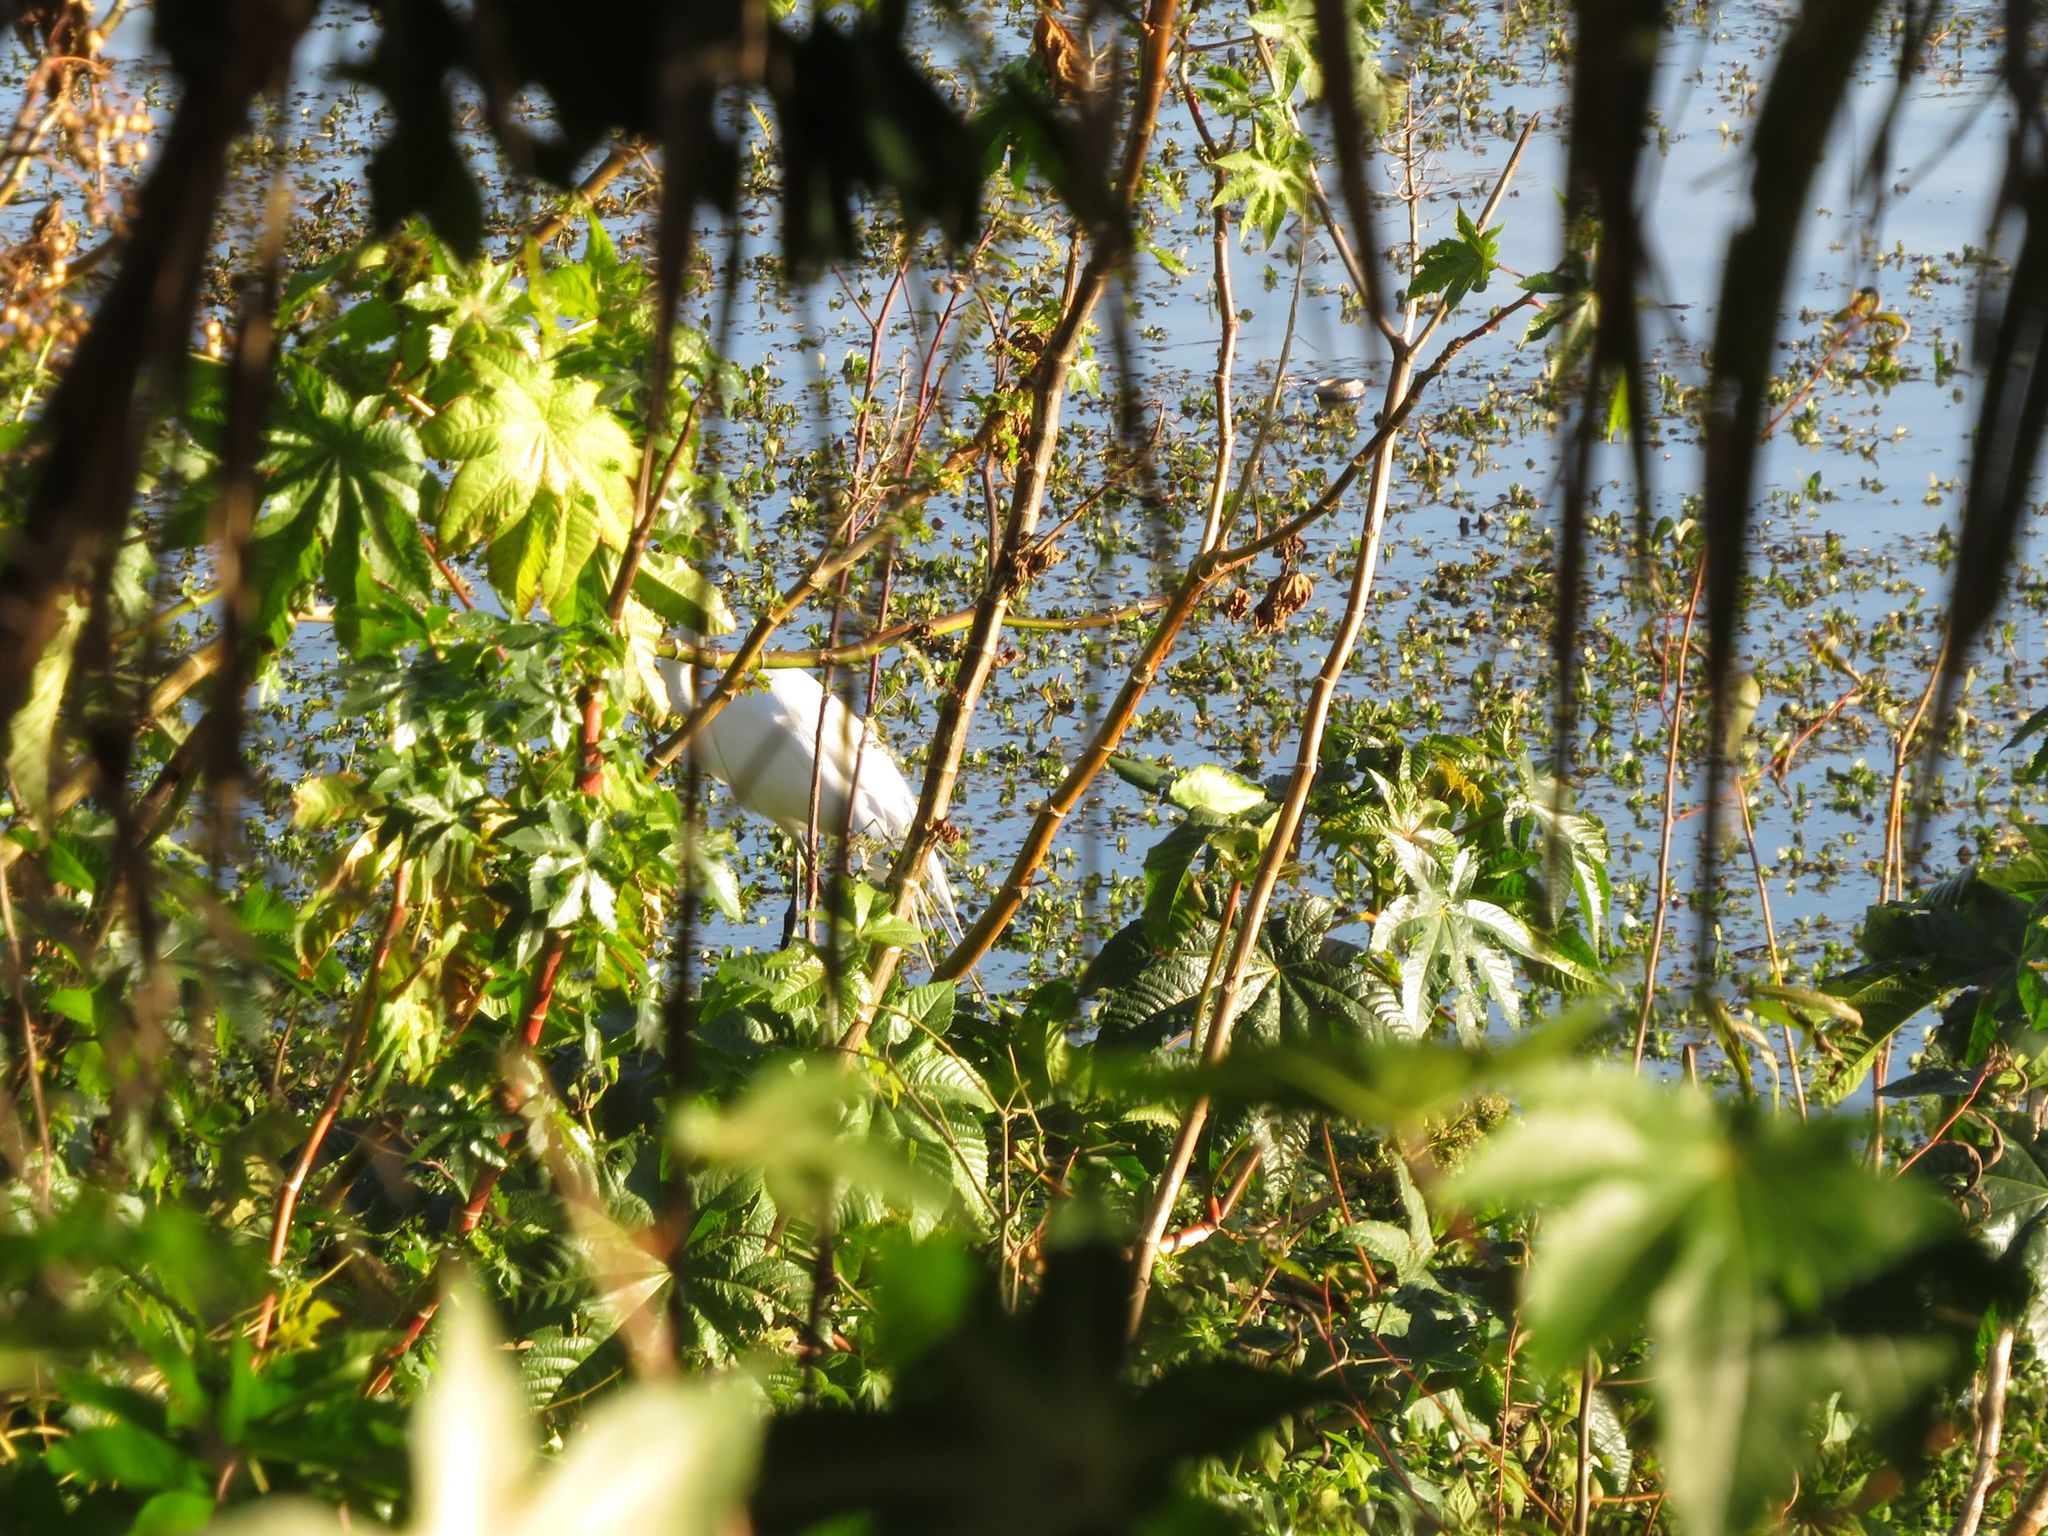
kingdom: Animalia
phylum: Chordata
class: Aves
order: Pelecaniformes
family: Ardeidae
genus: Ardea
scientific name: Ardea alba
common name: Great egret
